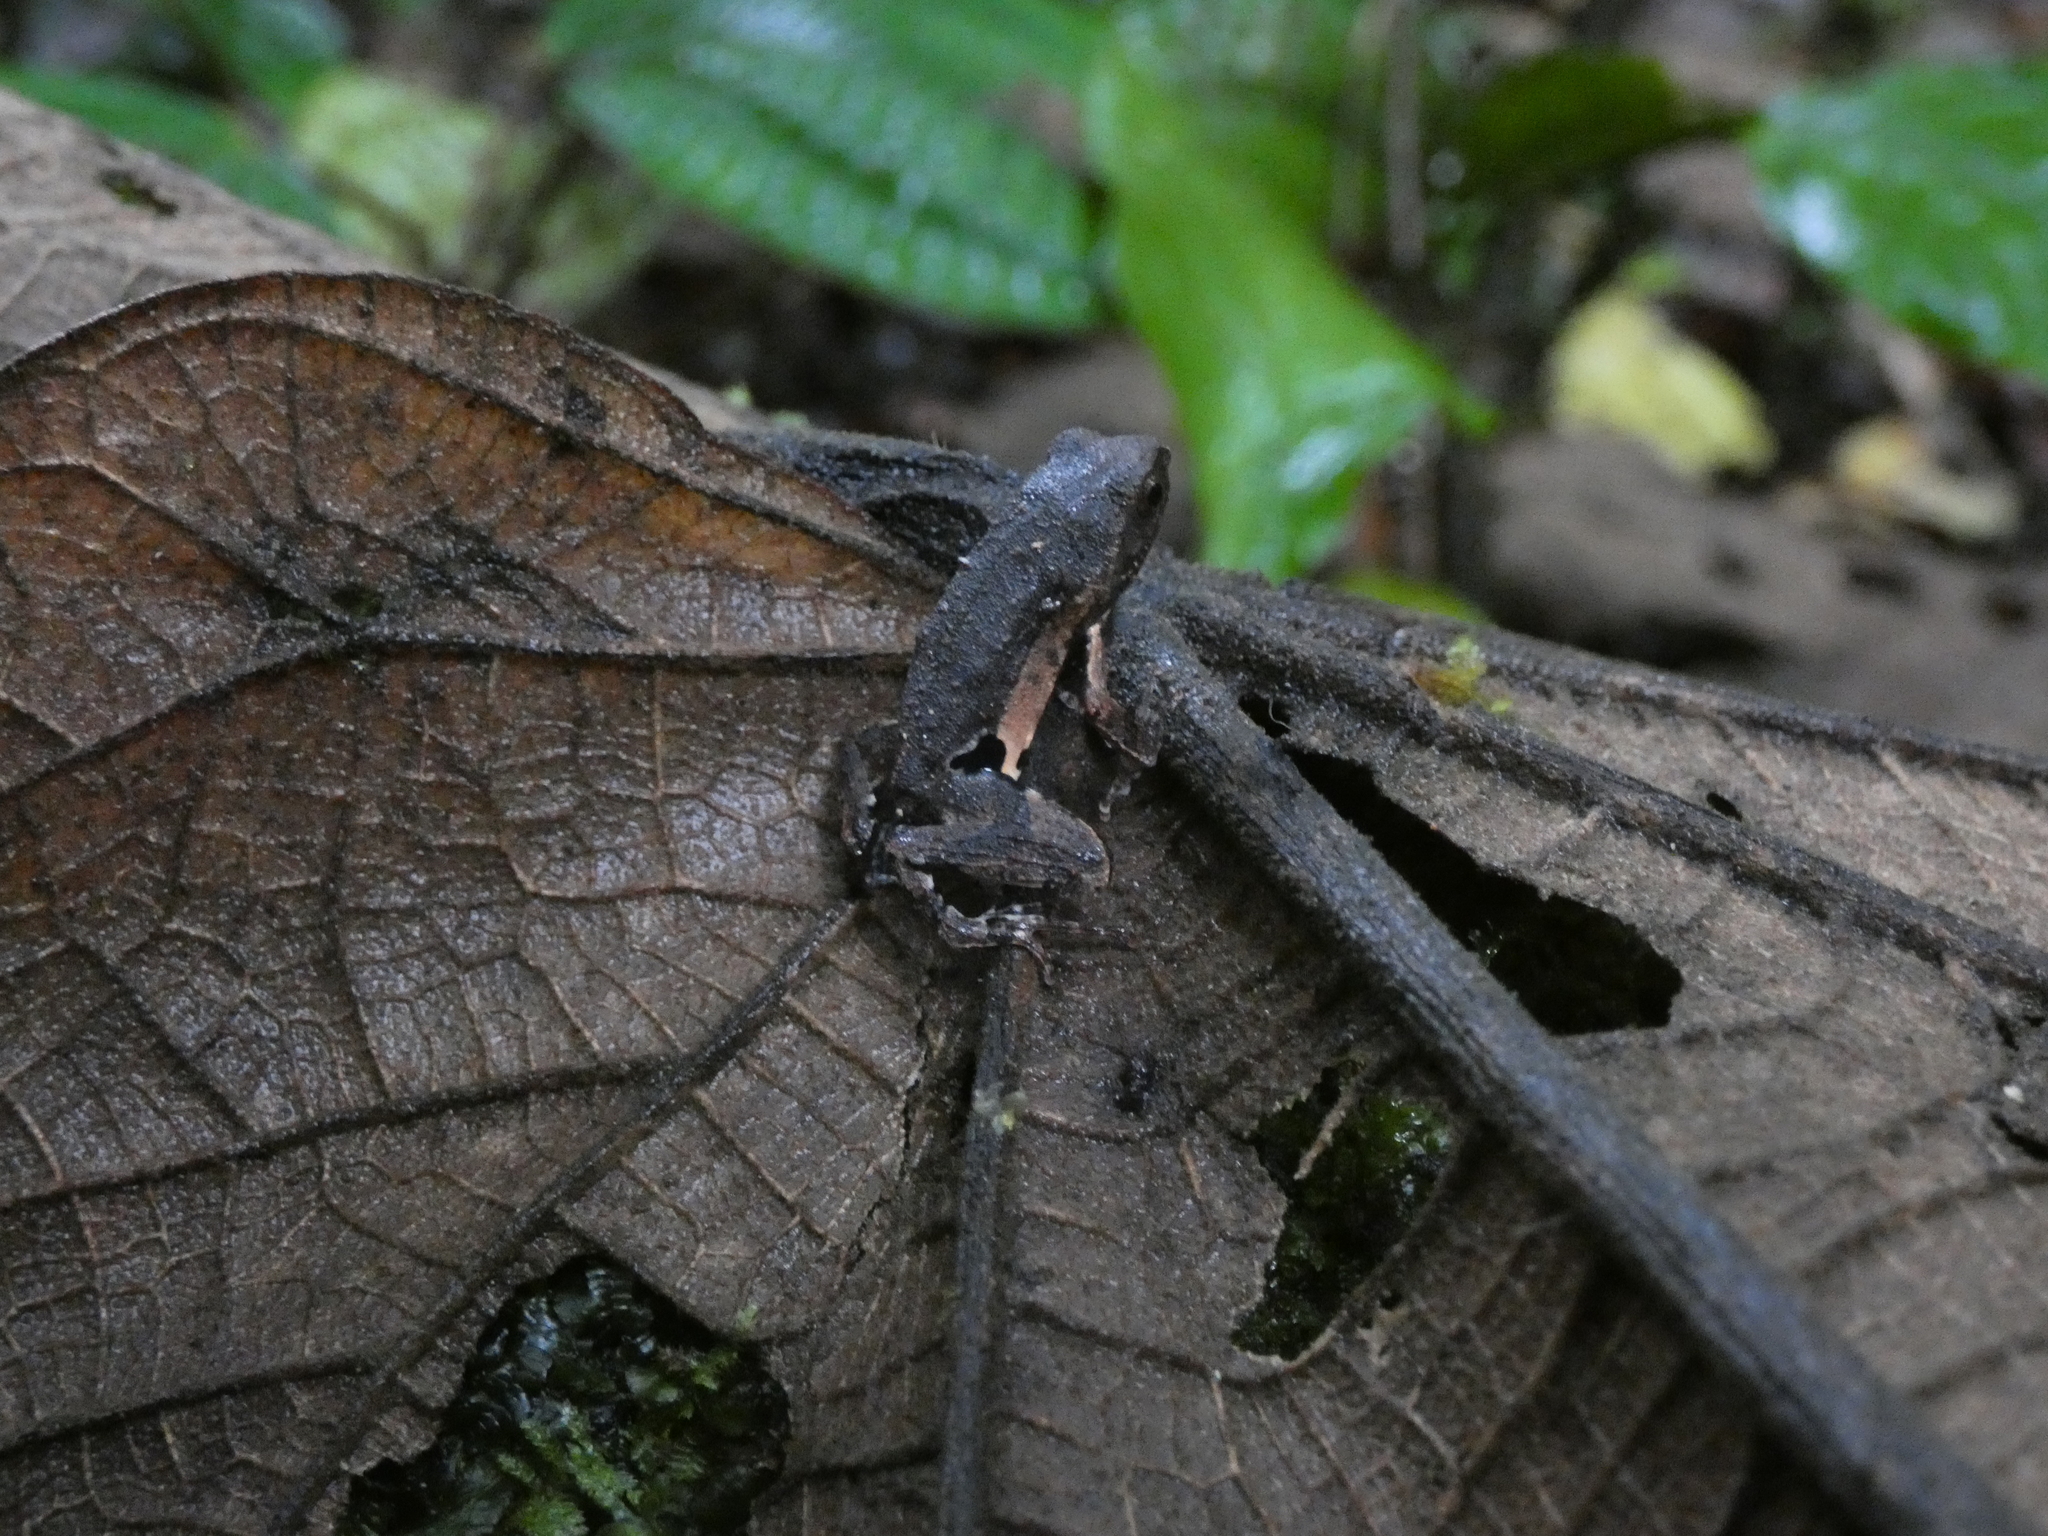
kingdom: Animalia
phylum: Chordata
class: Amphibia
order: Anura
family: Leptodactylidae
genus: Engystomops
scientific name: Engystomops petersi
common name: Peters’ dwarf frog
